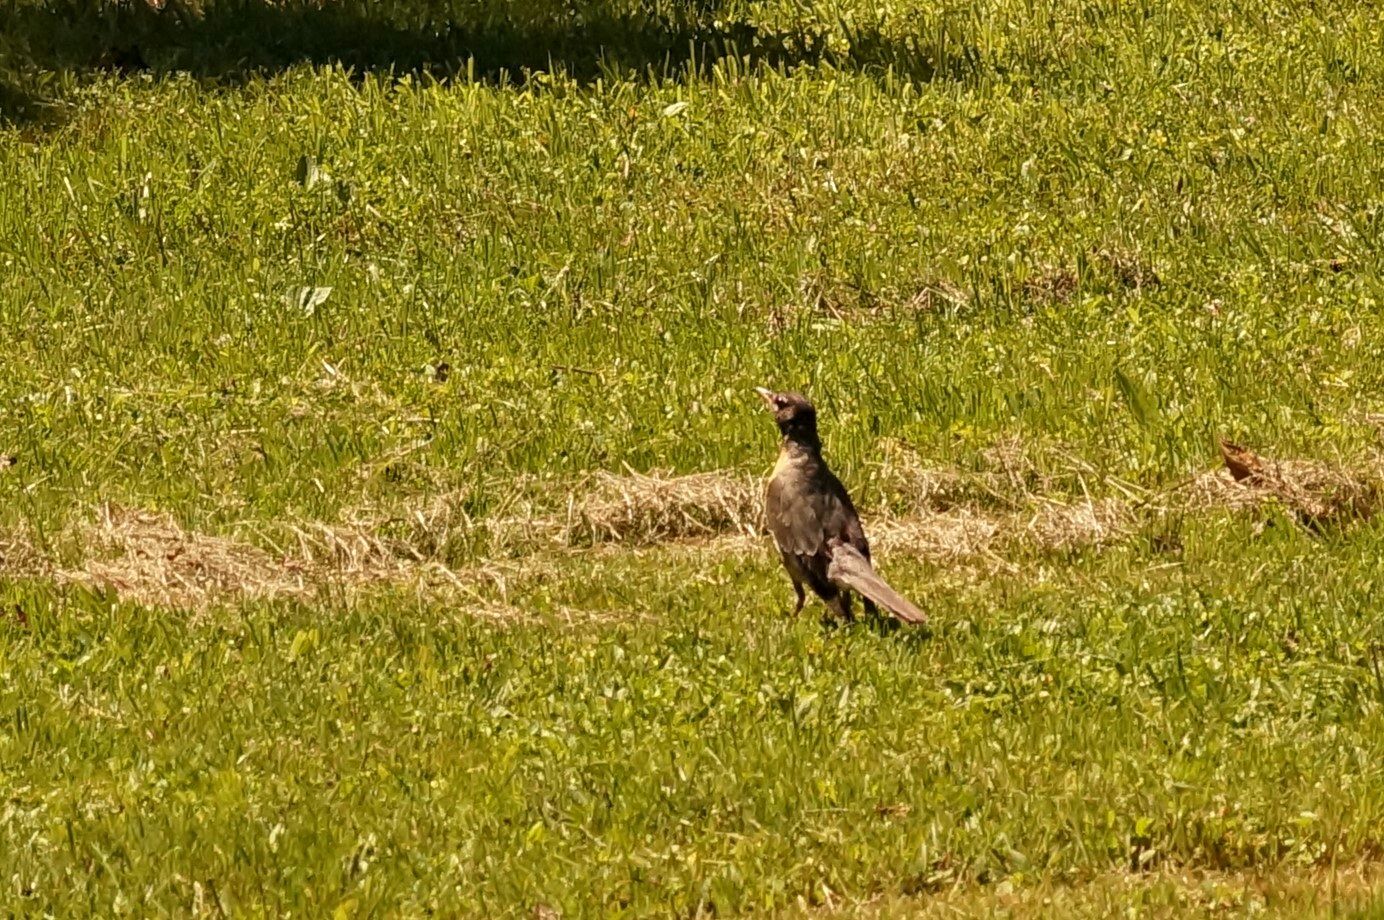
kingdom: Animalia
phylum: Chordata
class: Aves
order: Passeriformes
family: Turdidae
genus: Turdus
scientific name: Turdus migratorius
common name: American robin
